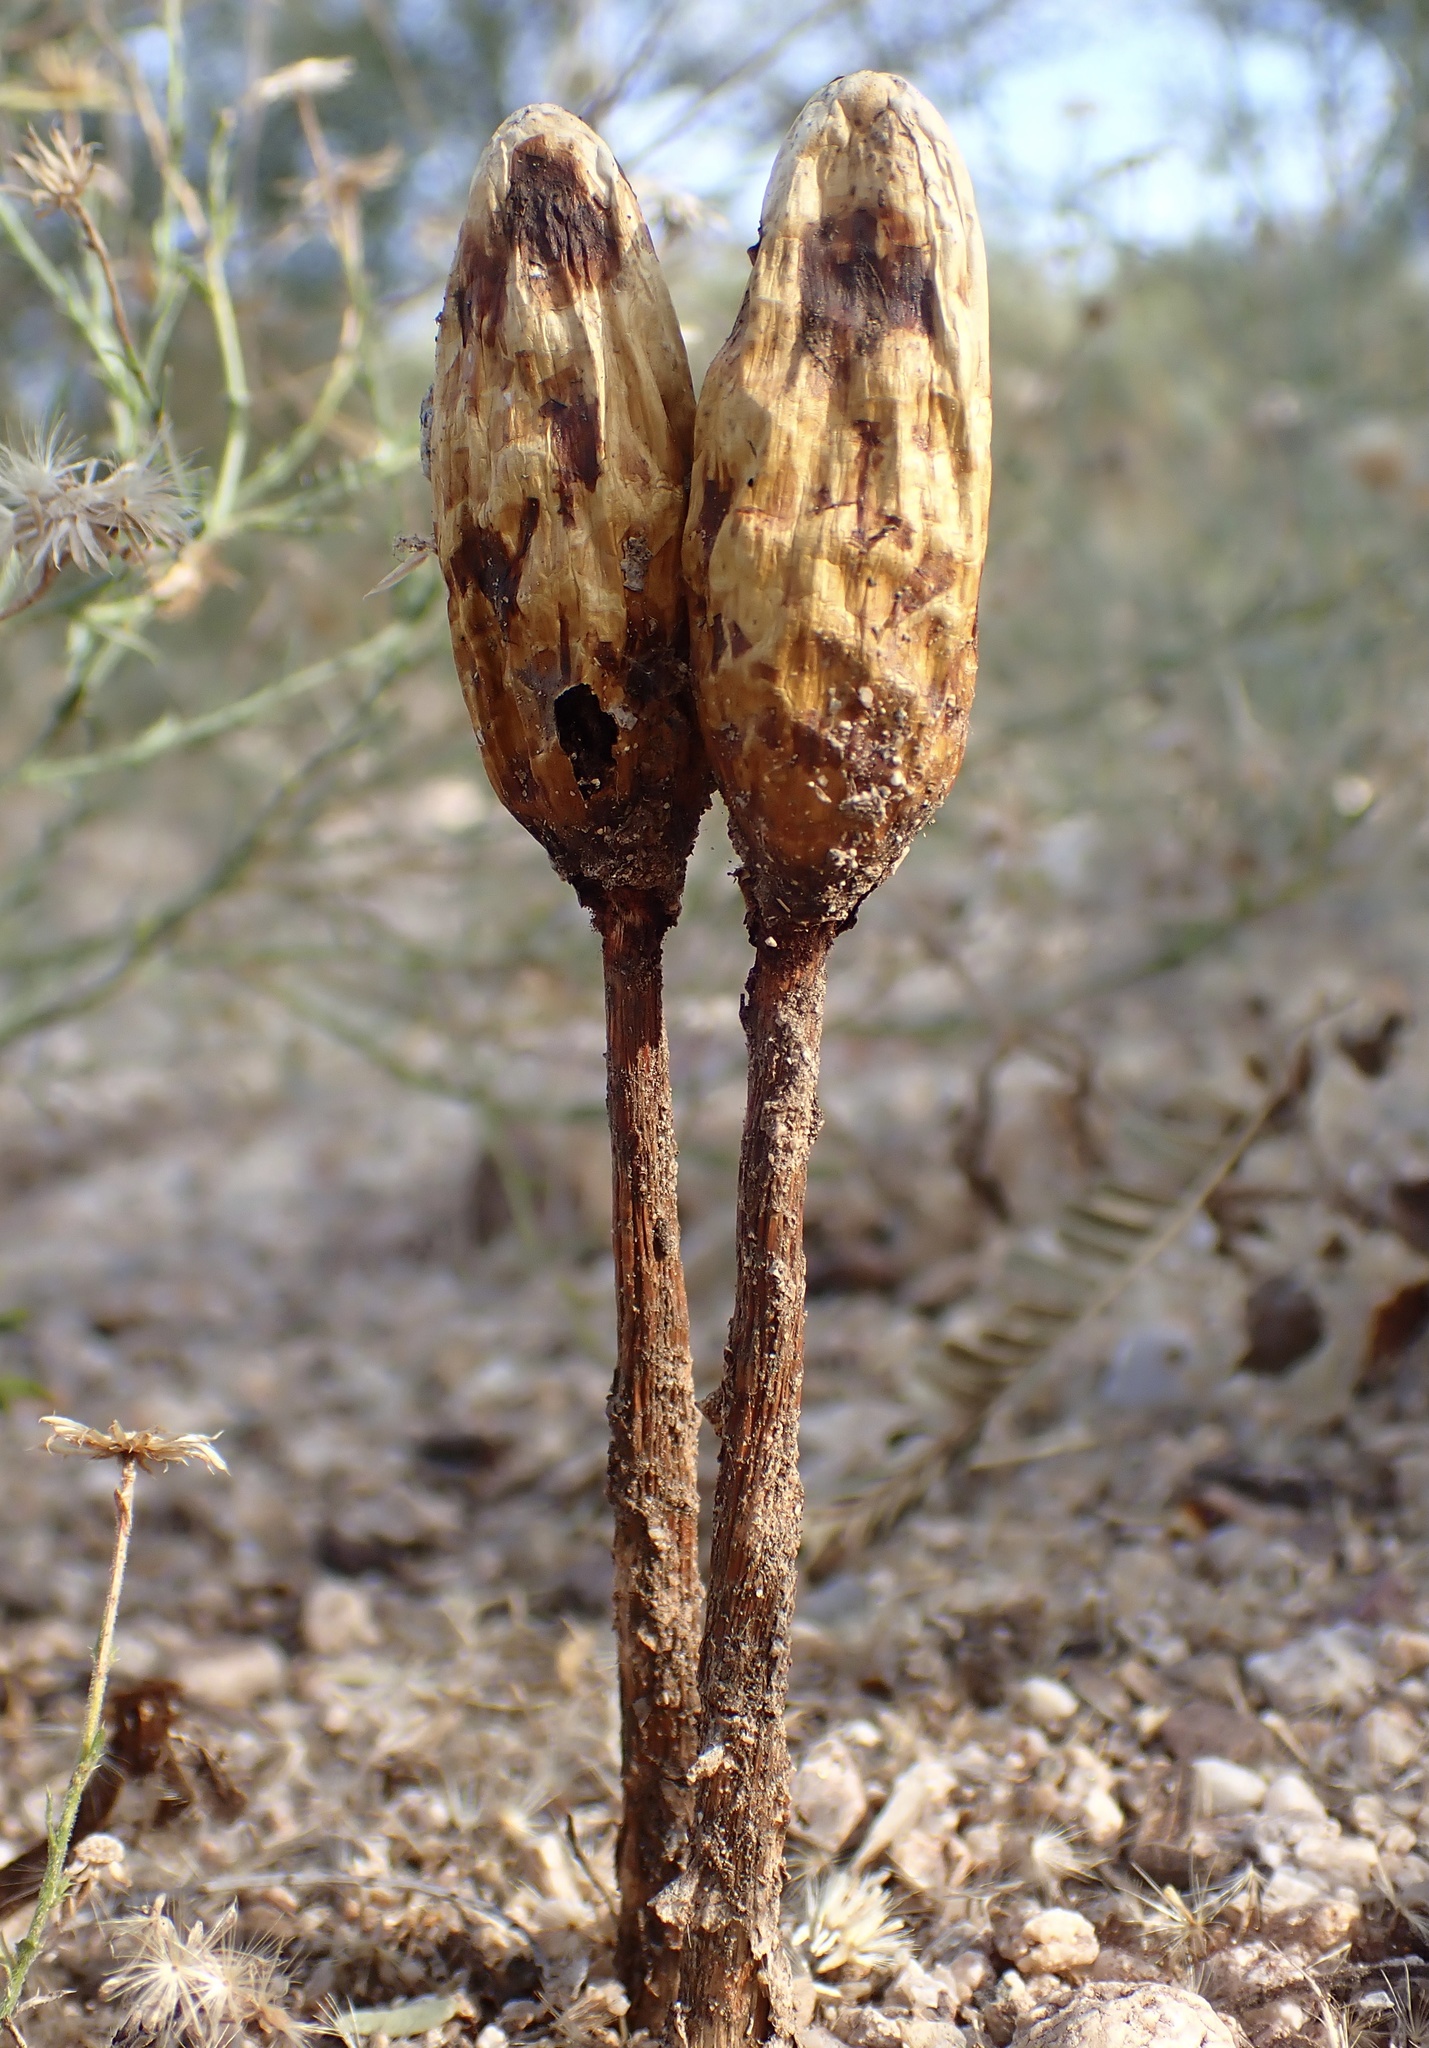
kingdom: Fungi
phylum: Basidiomycota
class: Agaricomycetes
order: Agaricales
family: Agaricaceae
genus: Podaxis
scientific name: Podaxis pistillaris
